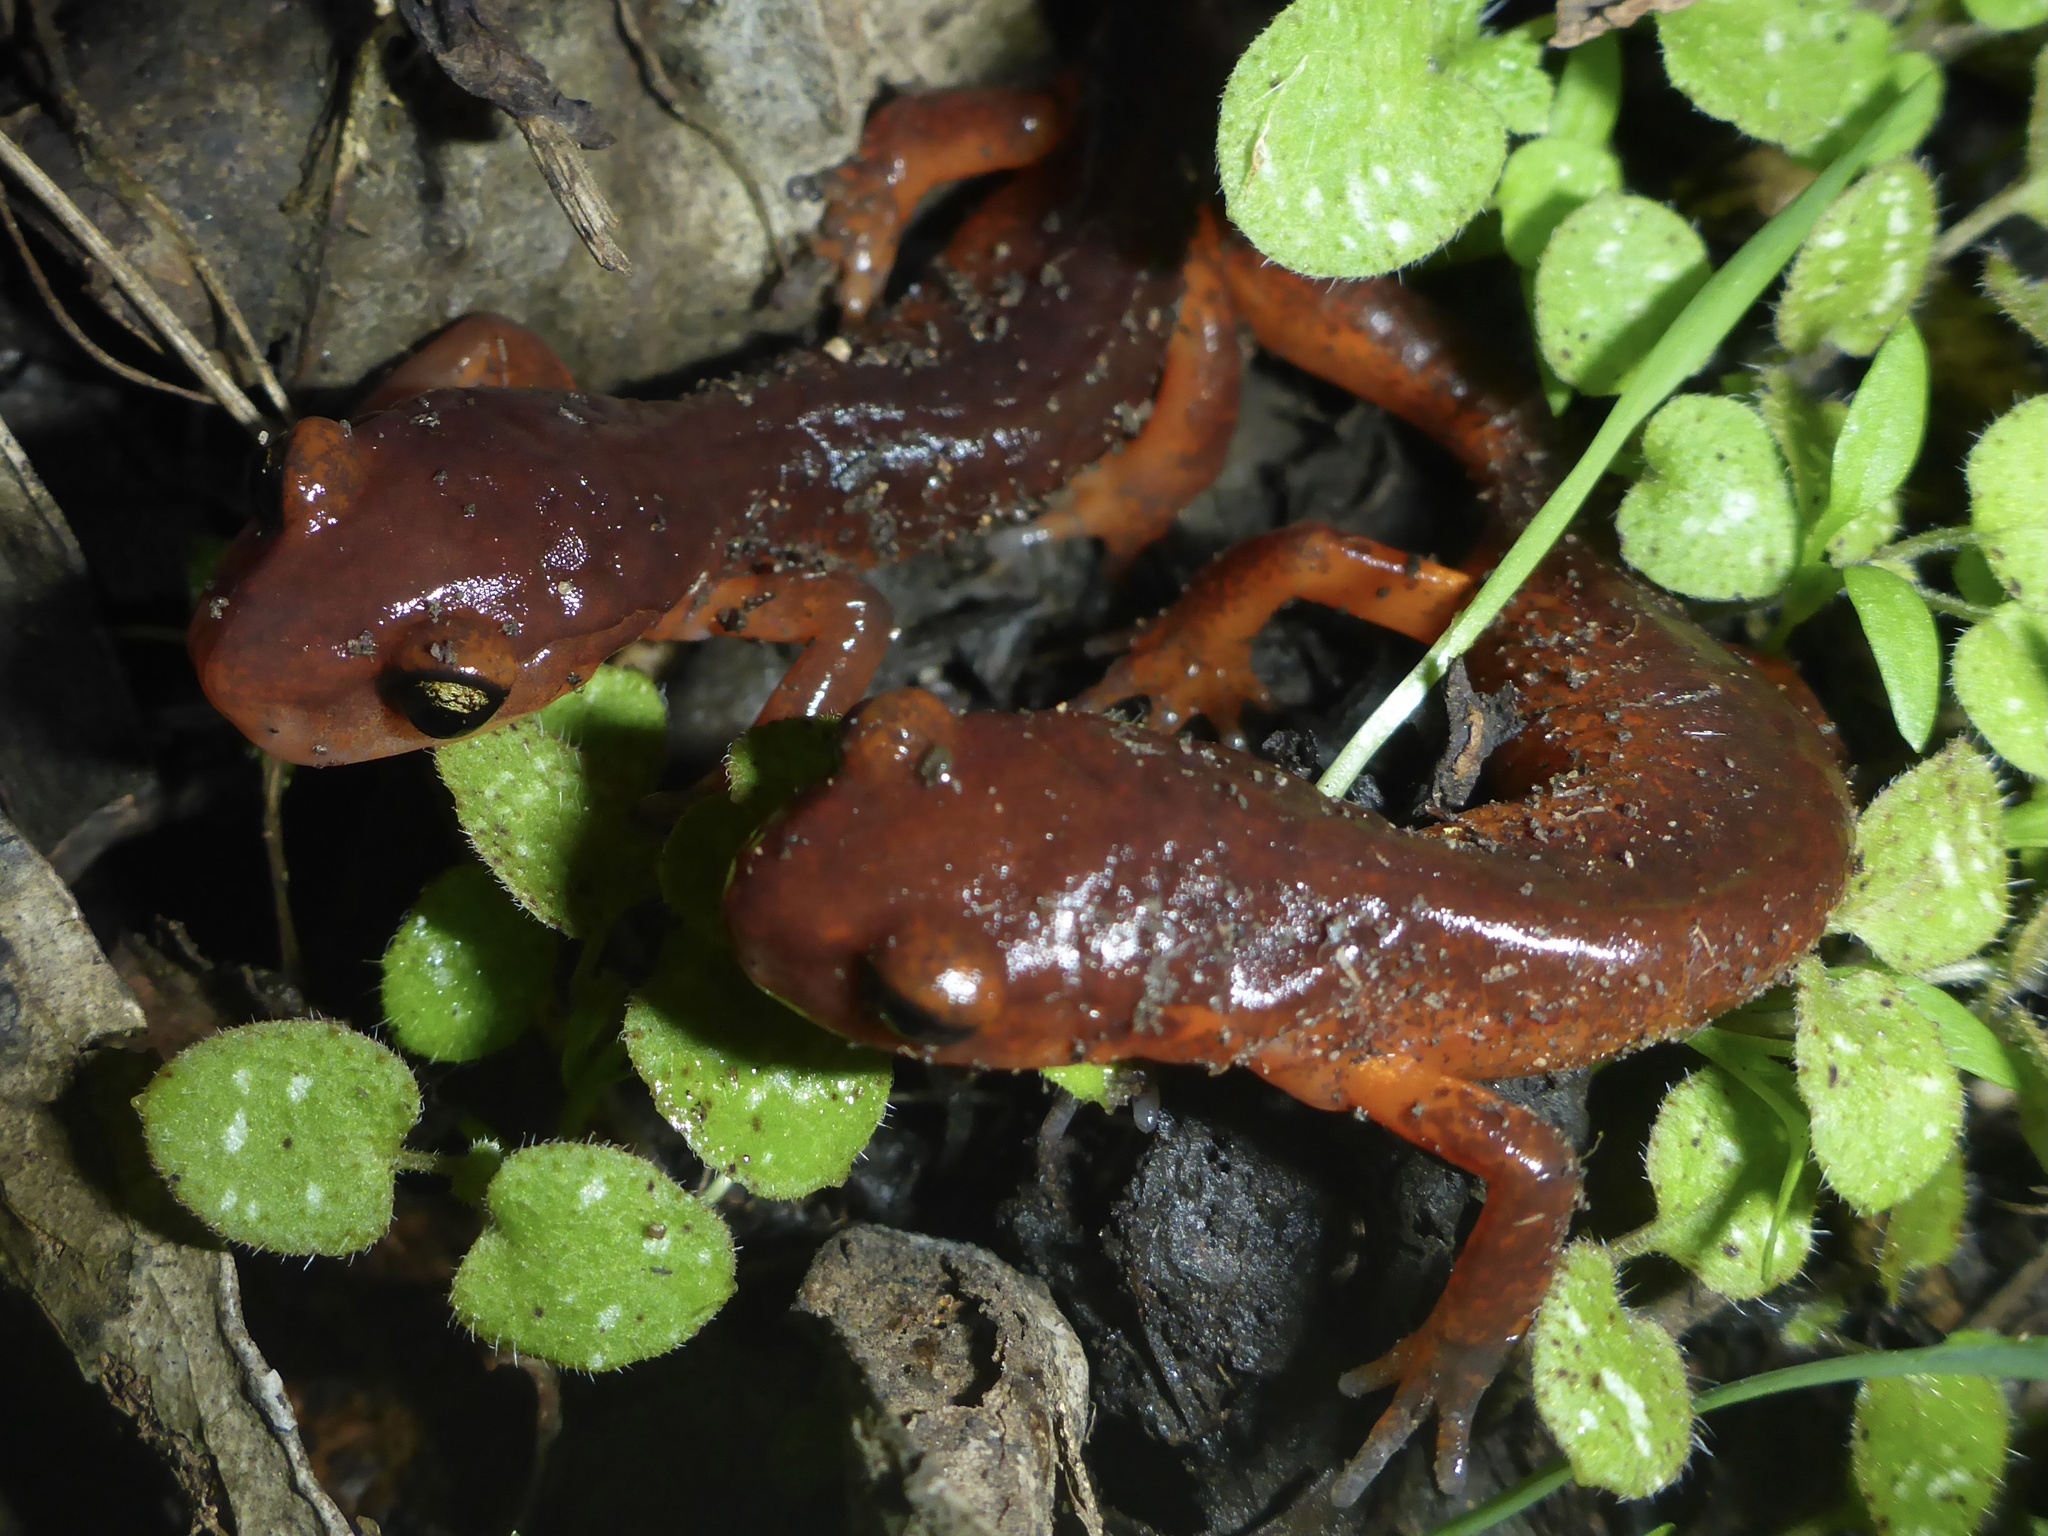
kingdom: Animalia
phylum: Chordata
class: Amphibia
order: Caudata
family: Plethodontidae
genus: Ensatina
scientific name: Ensatina eschscholtzii
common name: Ensatina
